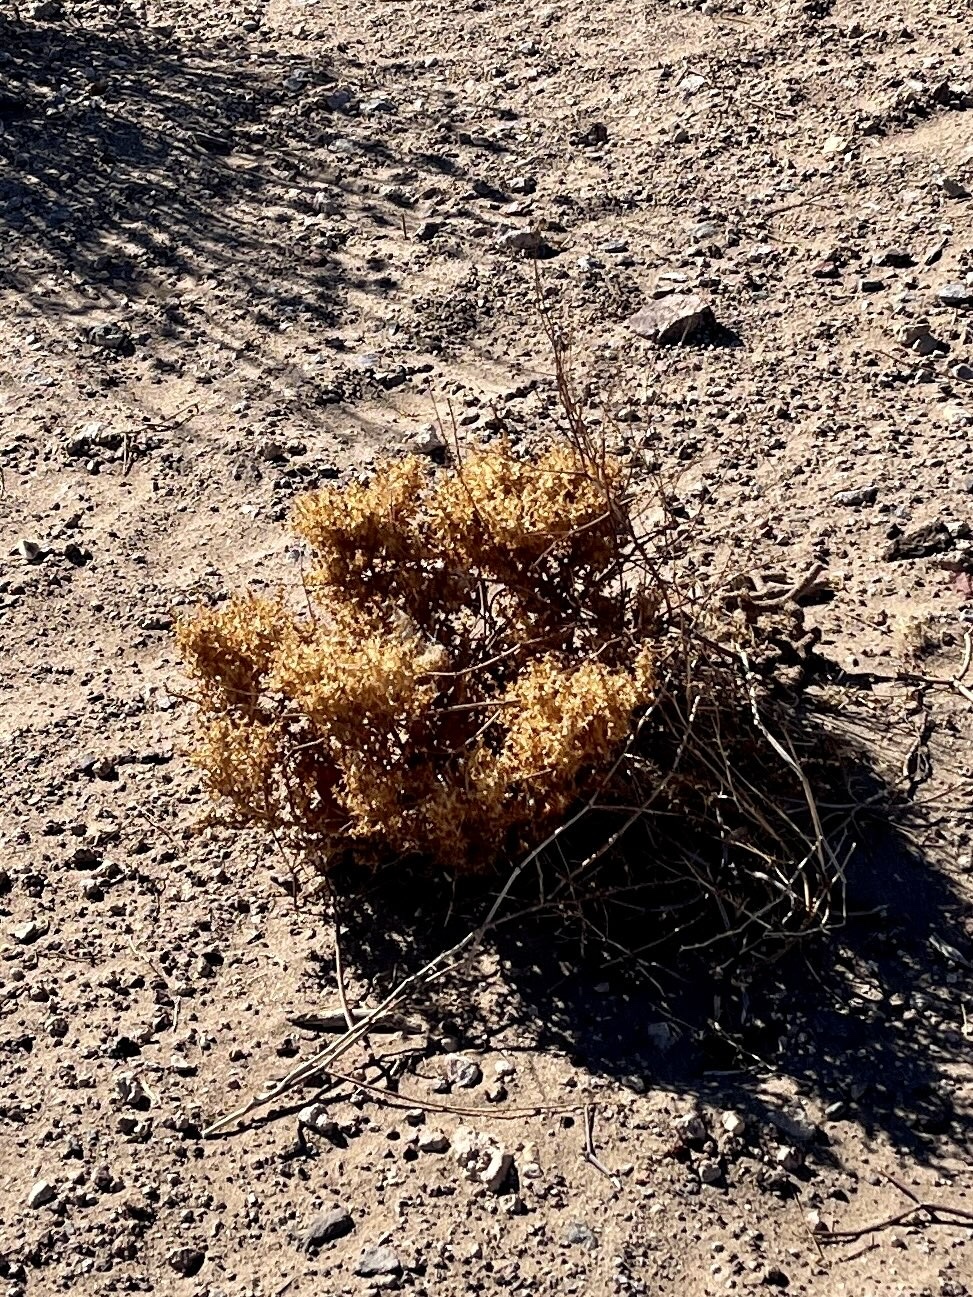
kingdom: Plantae
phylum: Tracheophyta
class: Magnoliopsida
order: Caryophyllales
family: Amaranthaceae
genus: Atriplex
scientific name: Atriplex confertifolia
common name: Shadscale
